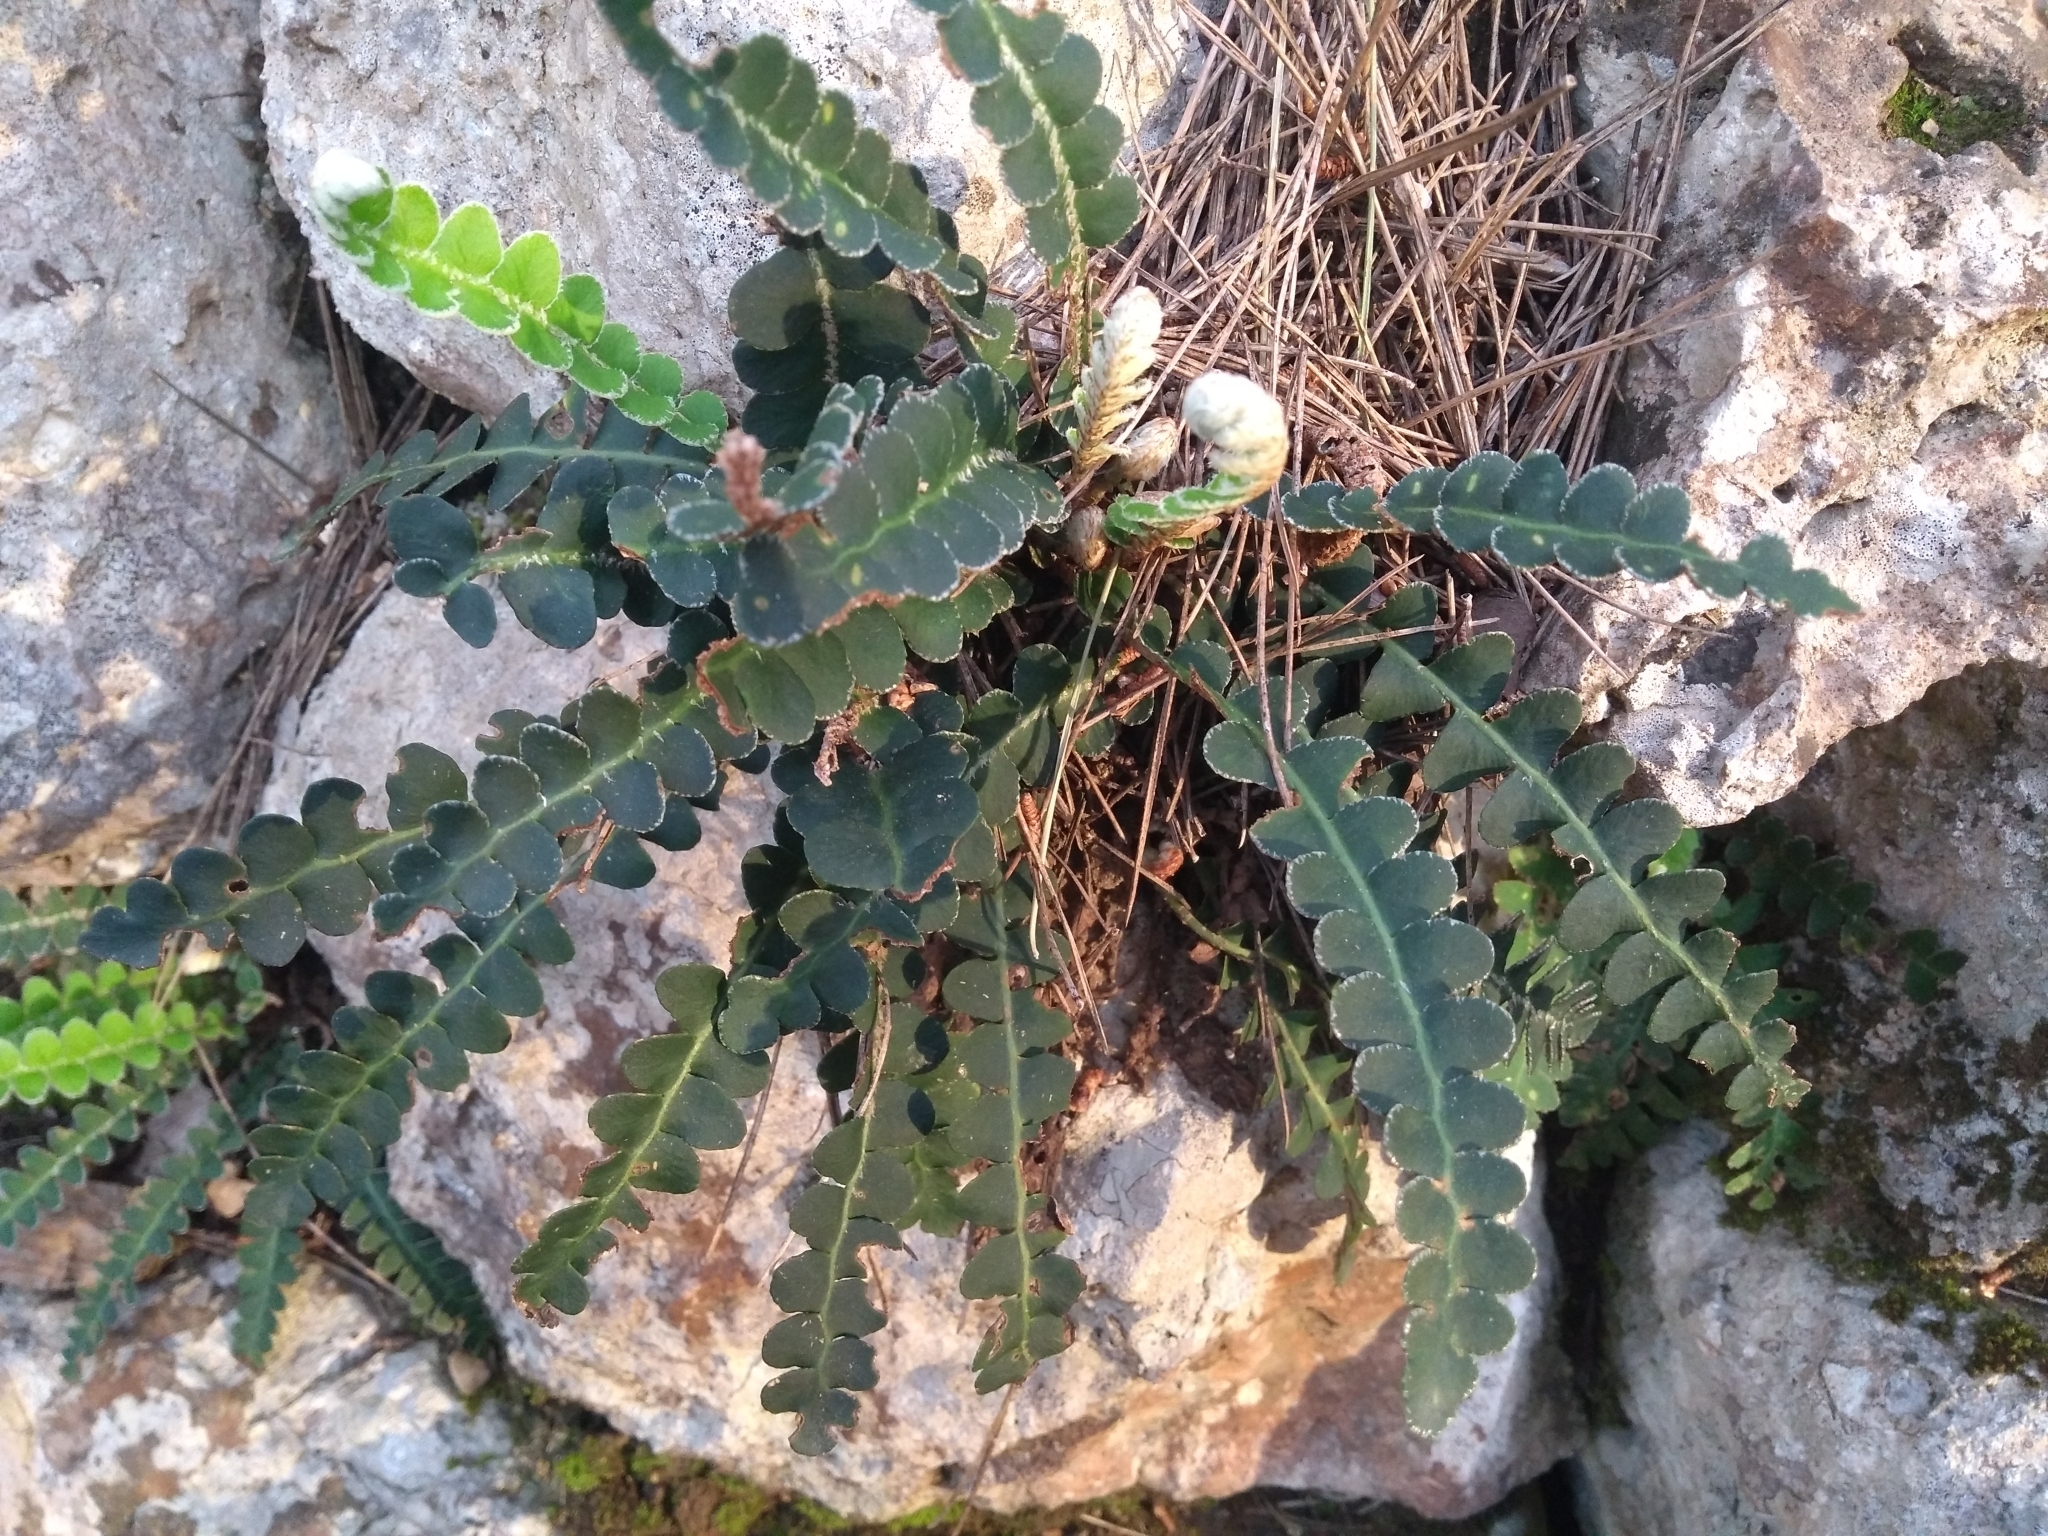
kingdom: Plantae
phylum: Tracheophyta
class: Polypodiopsida
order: Polypodiales
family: Aspleniaceae
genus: Asplenium
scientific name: Asplenium ceterach
